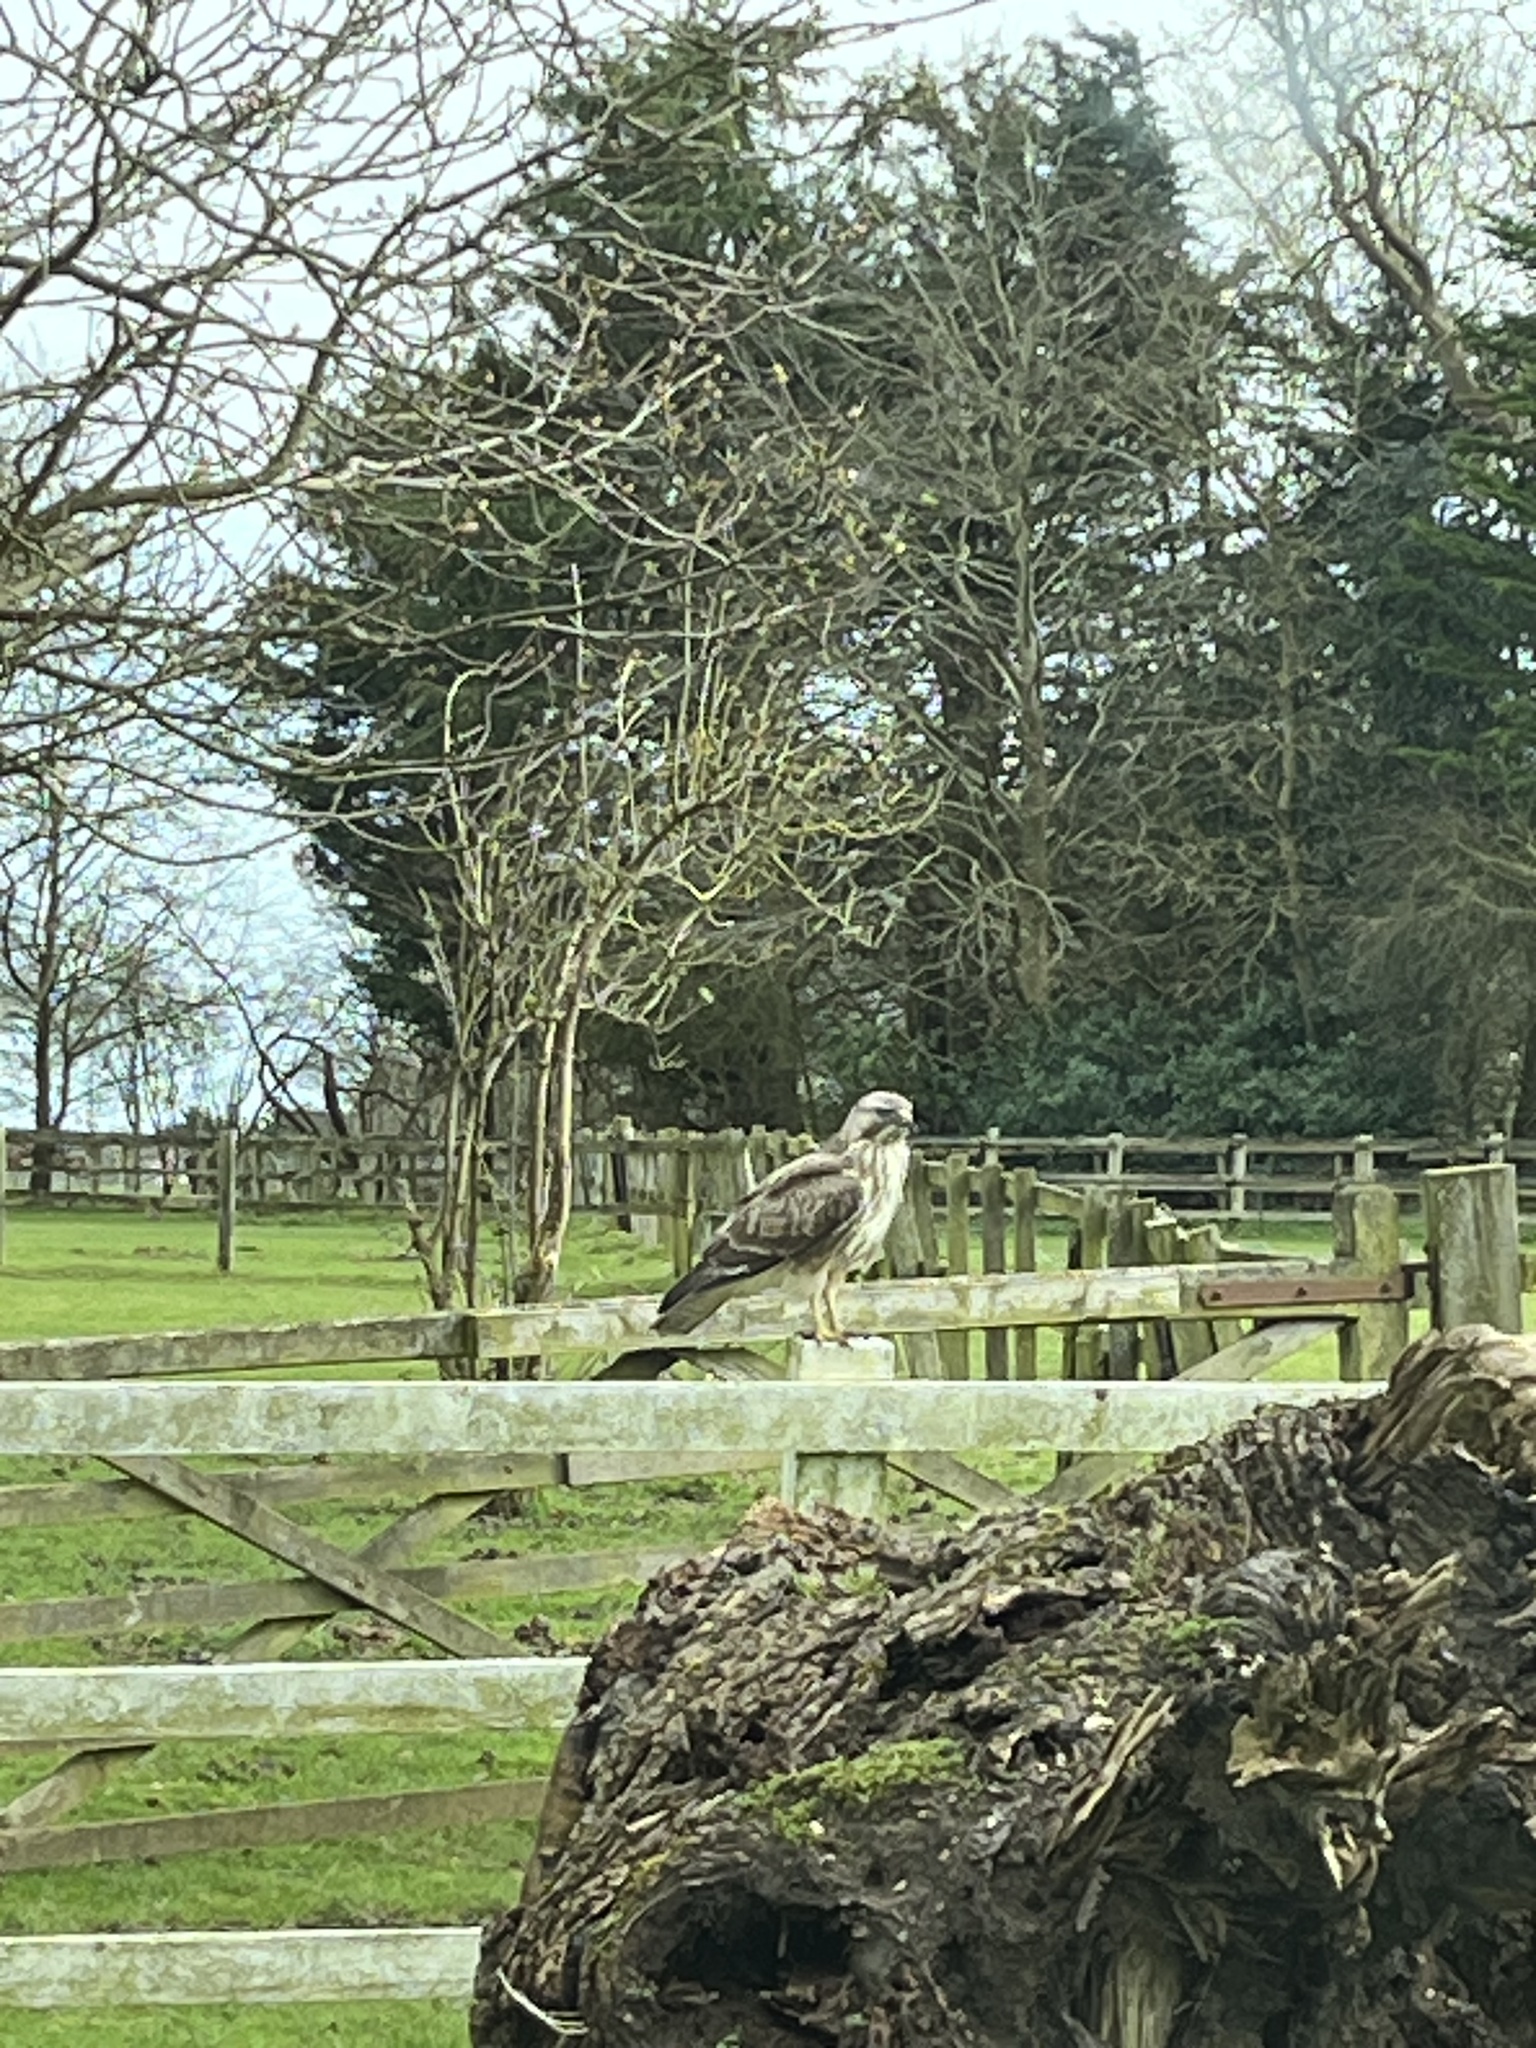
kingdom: Animalia
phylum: Chordata
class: Aves
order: Accipitriformes
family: Accipitridae
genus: Buteo
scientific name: Buteo buteo
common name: Common buzzard
